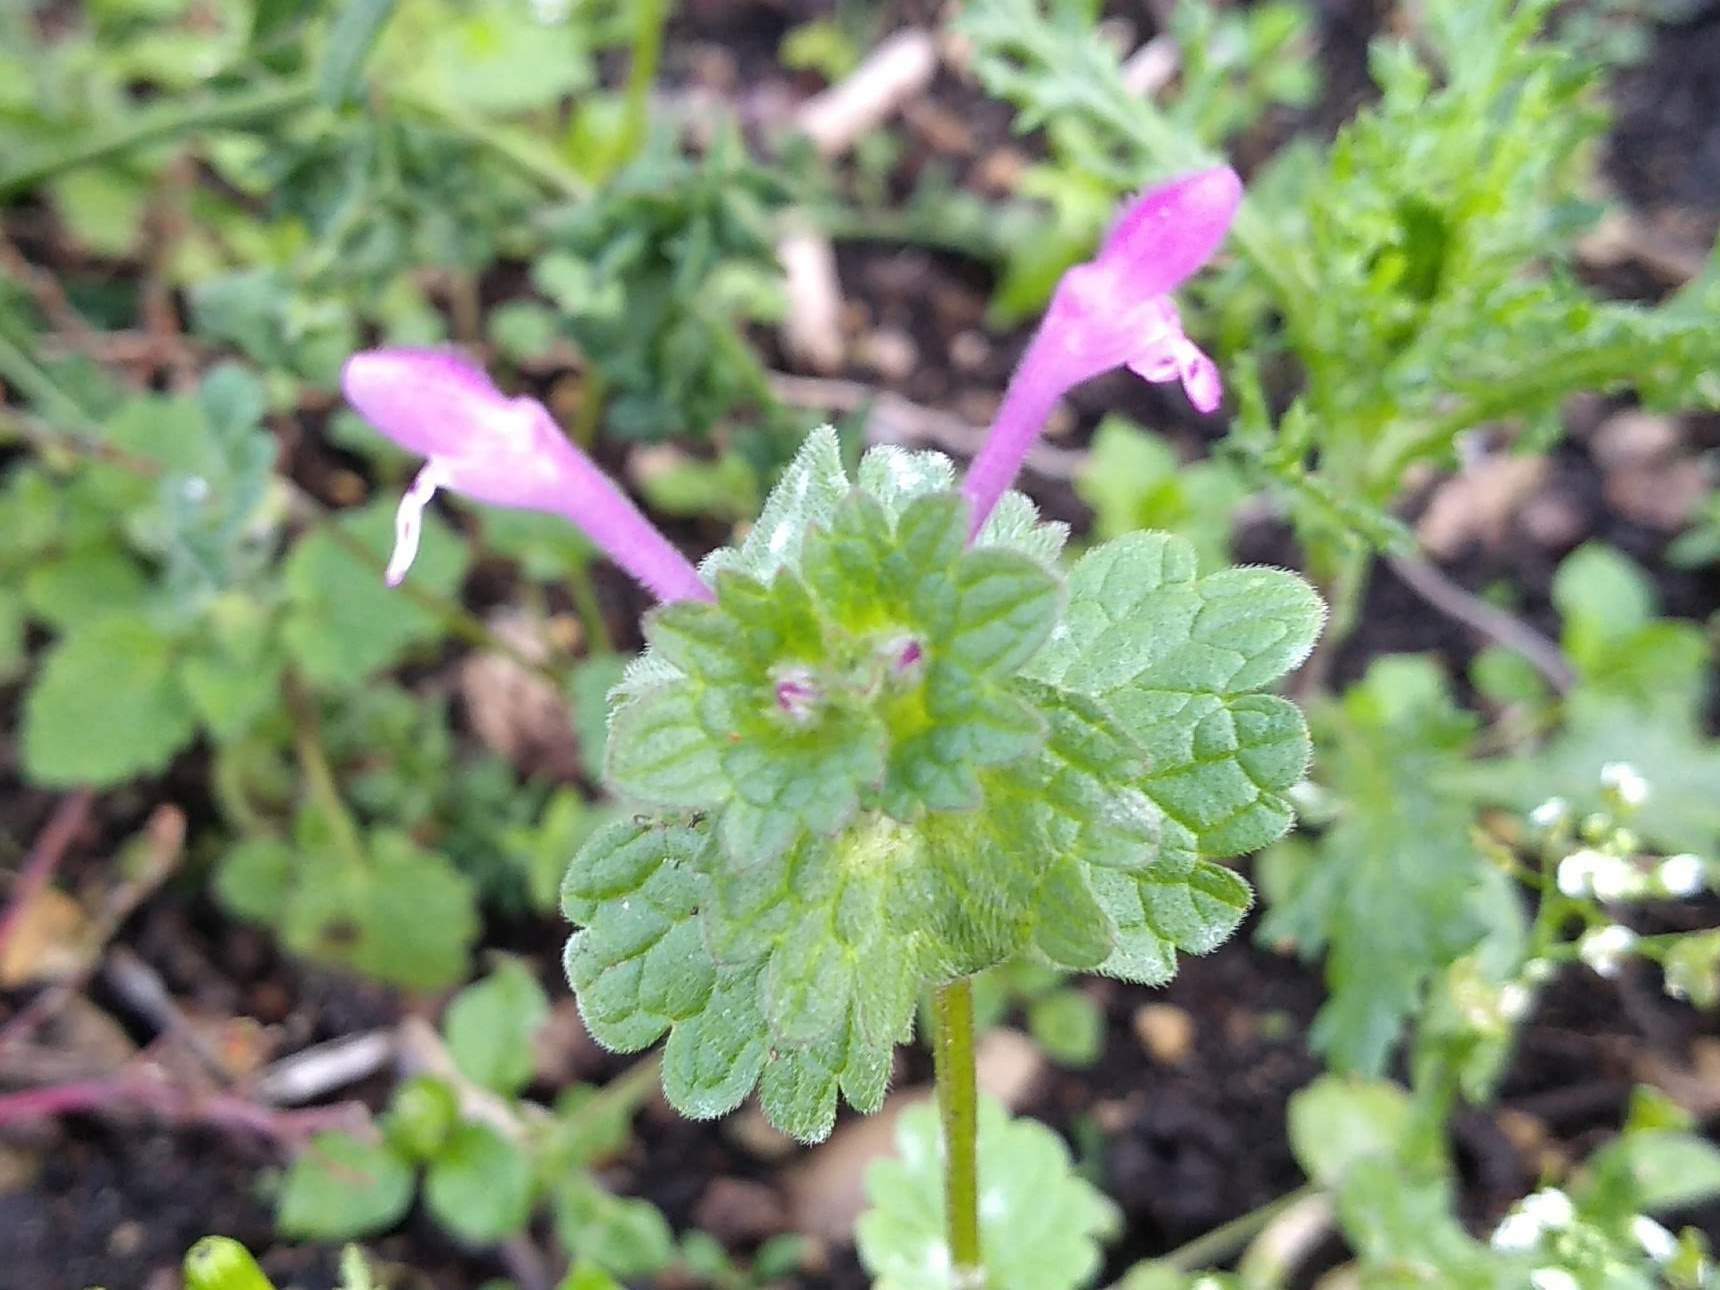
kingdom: Plantae
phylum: Tracheophyta
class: Magnoliopsida
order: Lamiales
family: Lamiaceae
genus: Lamium
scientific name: Lamium amplexicaule
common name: Henbit dead-nettle
